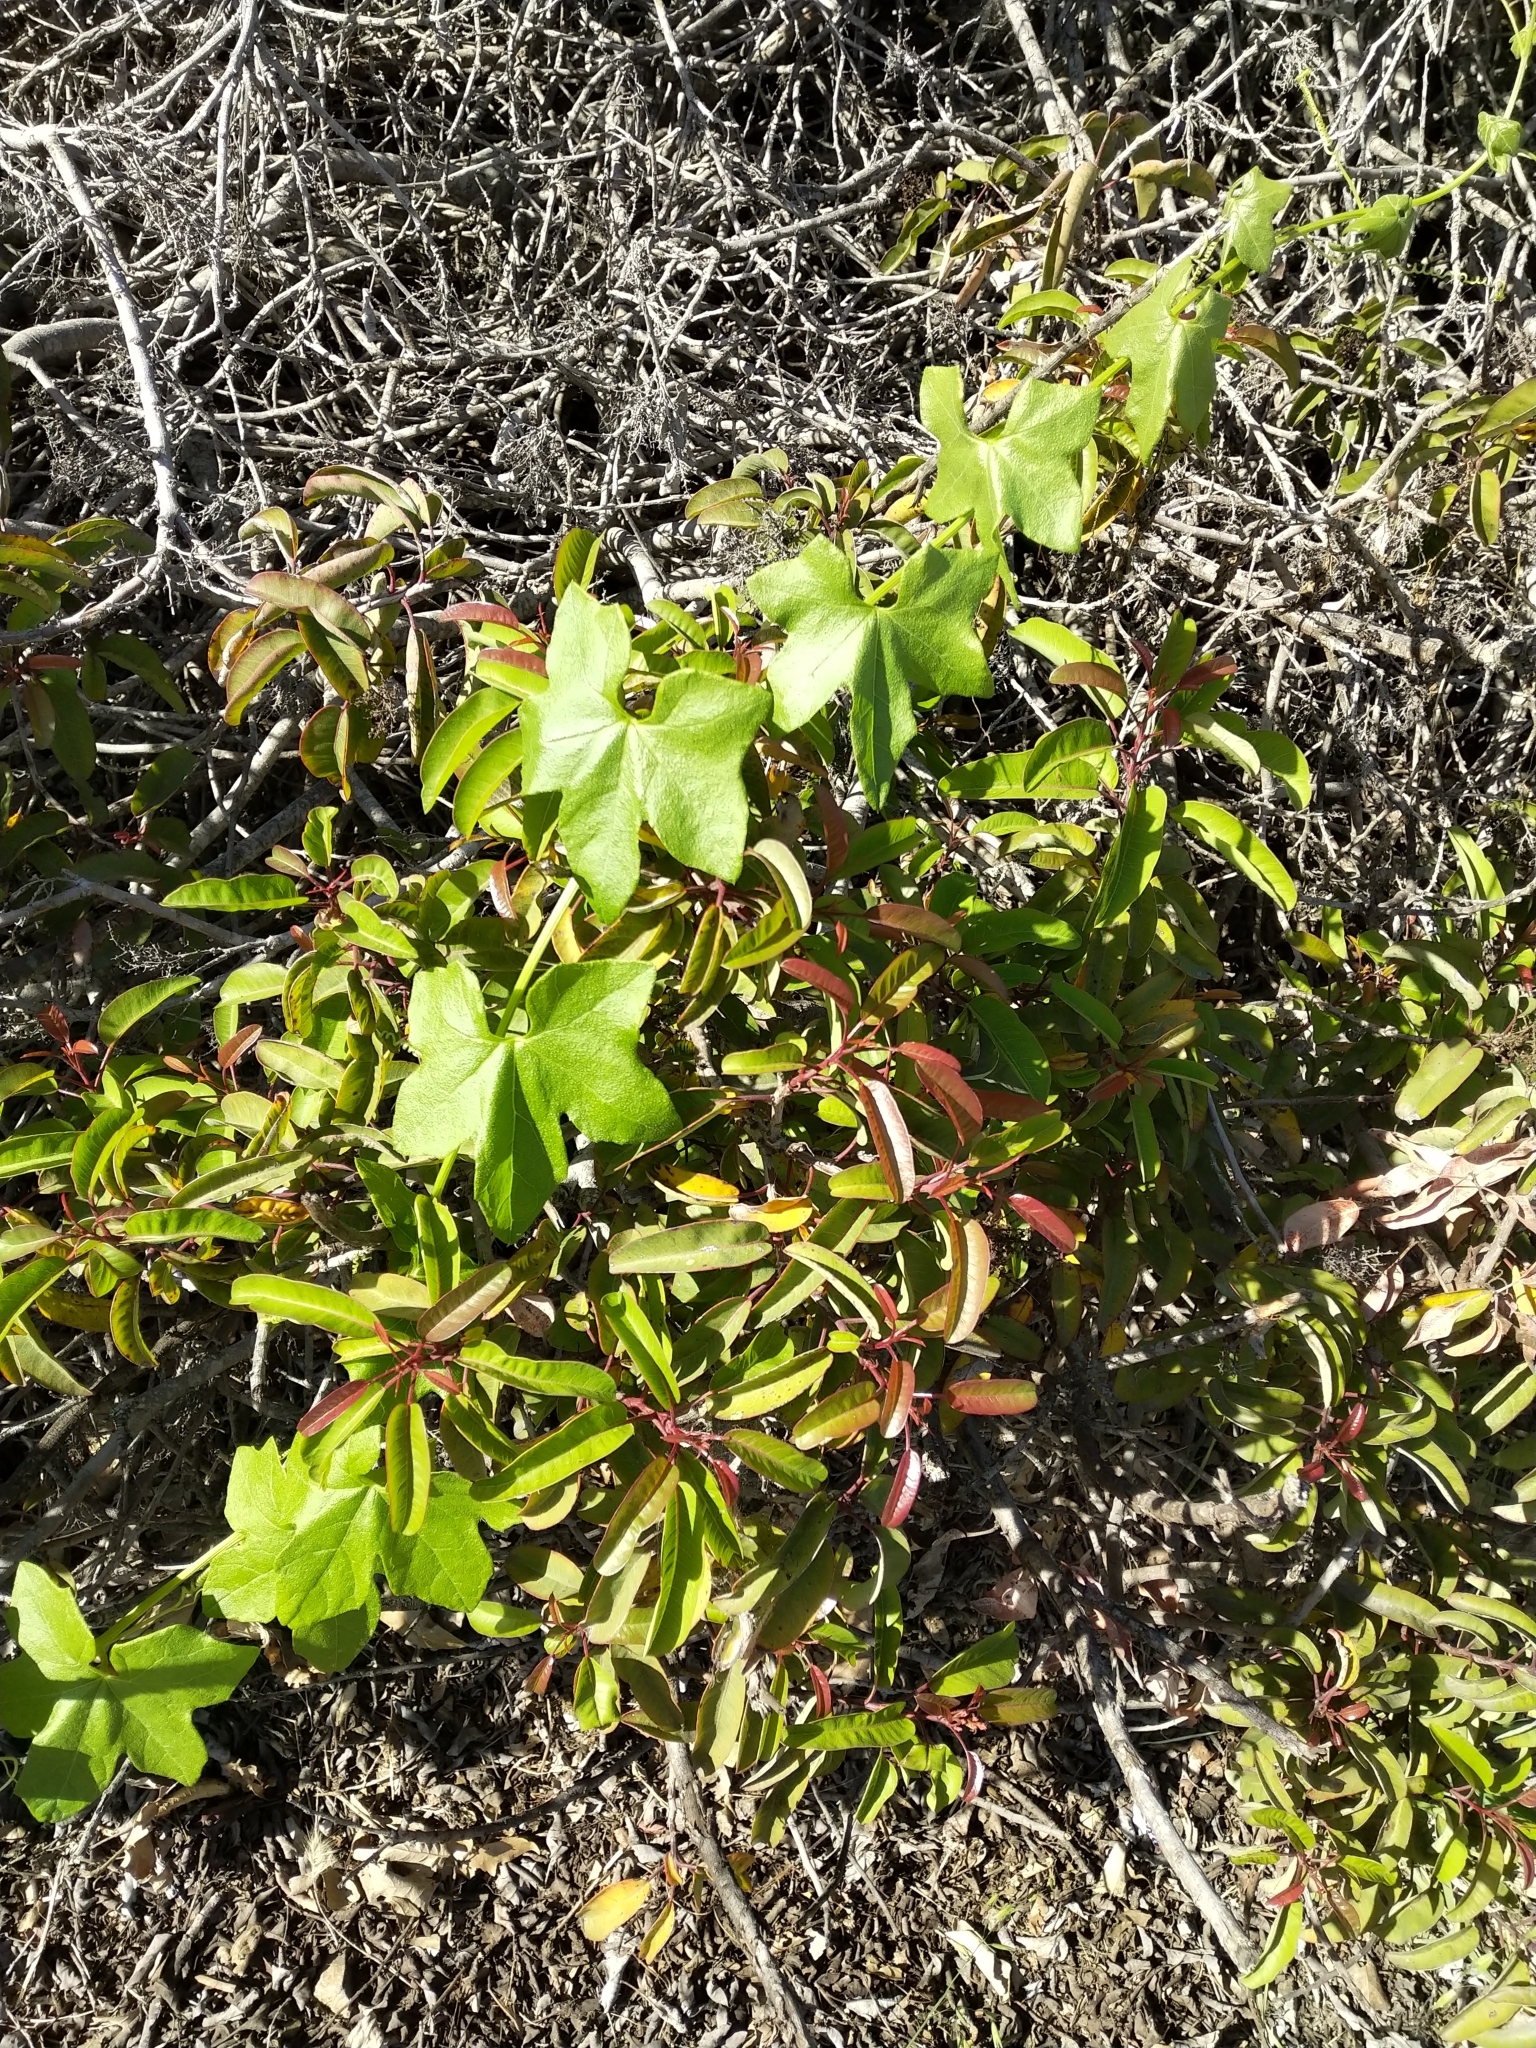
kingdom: Plantae
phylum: Tracheophyta
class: Magnoliopsida
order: Cucurbitales
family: Cucurbitaceae
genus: Marah
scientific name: Marah macrocarpa
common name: Cucamonga manroot
